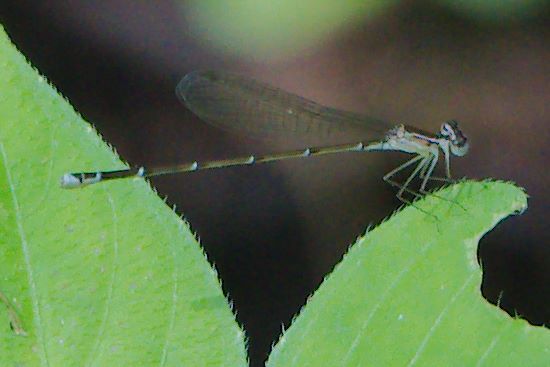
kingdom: Animalia
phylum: Arthropoda
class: Insecta
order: Odonata
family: Coenagrionidae
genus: Nehalennia
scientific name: Nehalennia pallidula
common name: Everglades sprite
